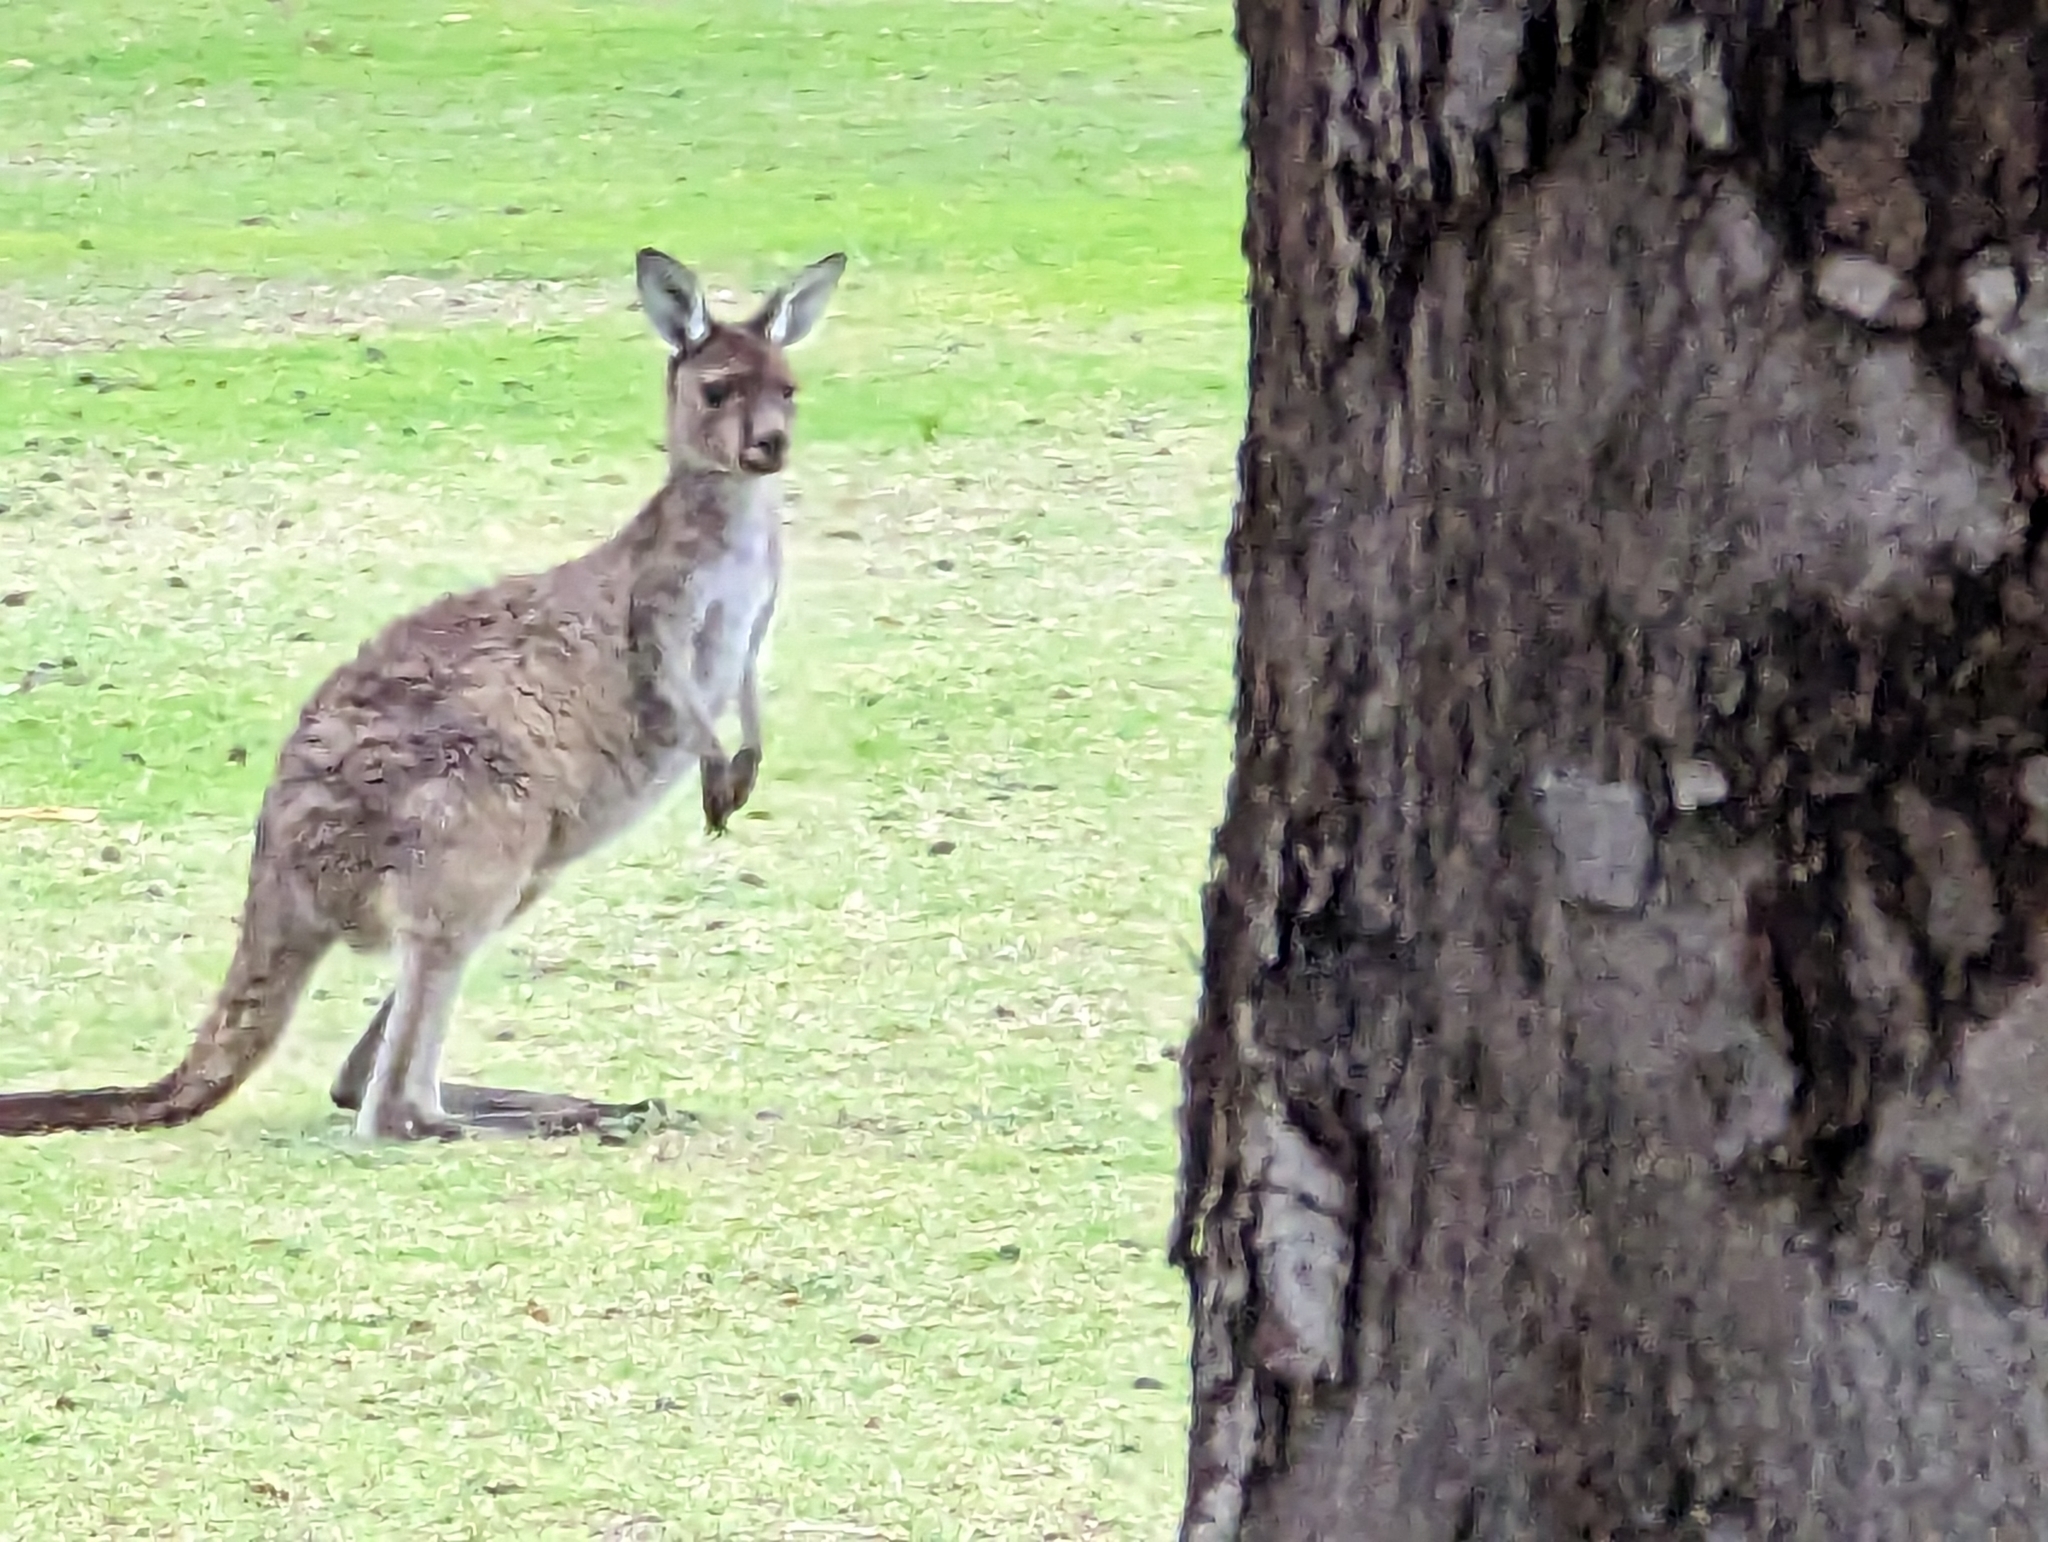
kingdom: Animalia
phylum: Chordata
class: Mammalia
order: Diprotodontia
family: Macropodidae
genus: Macropus
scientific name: Macropus fuliginosus
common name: Western grey kangaroo
